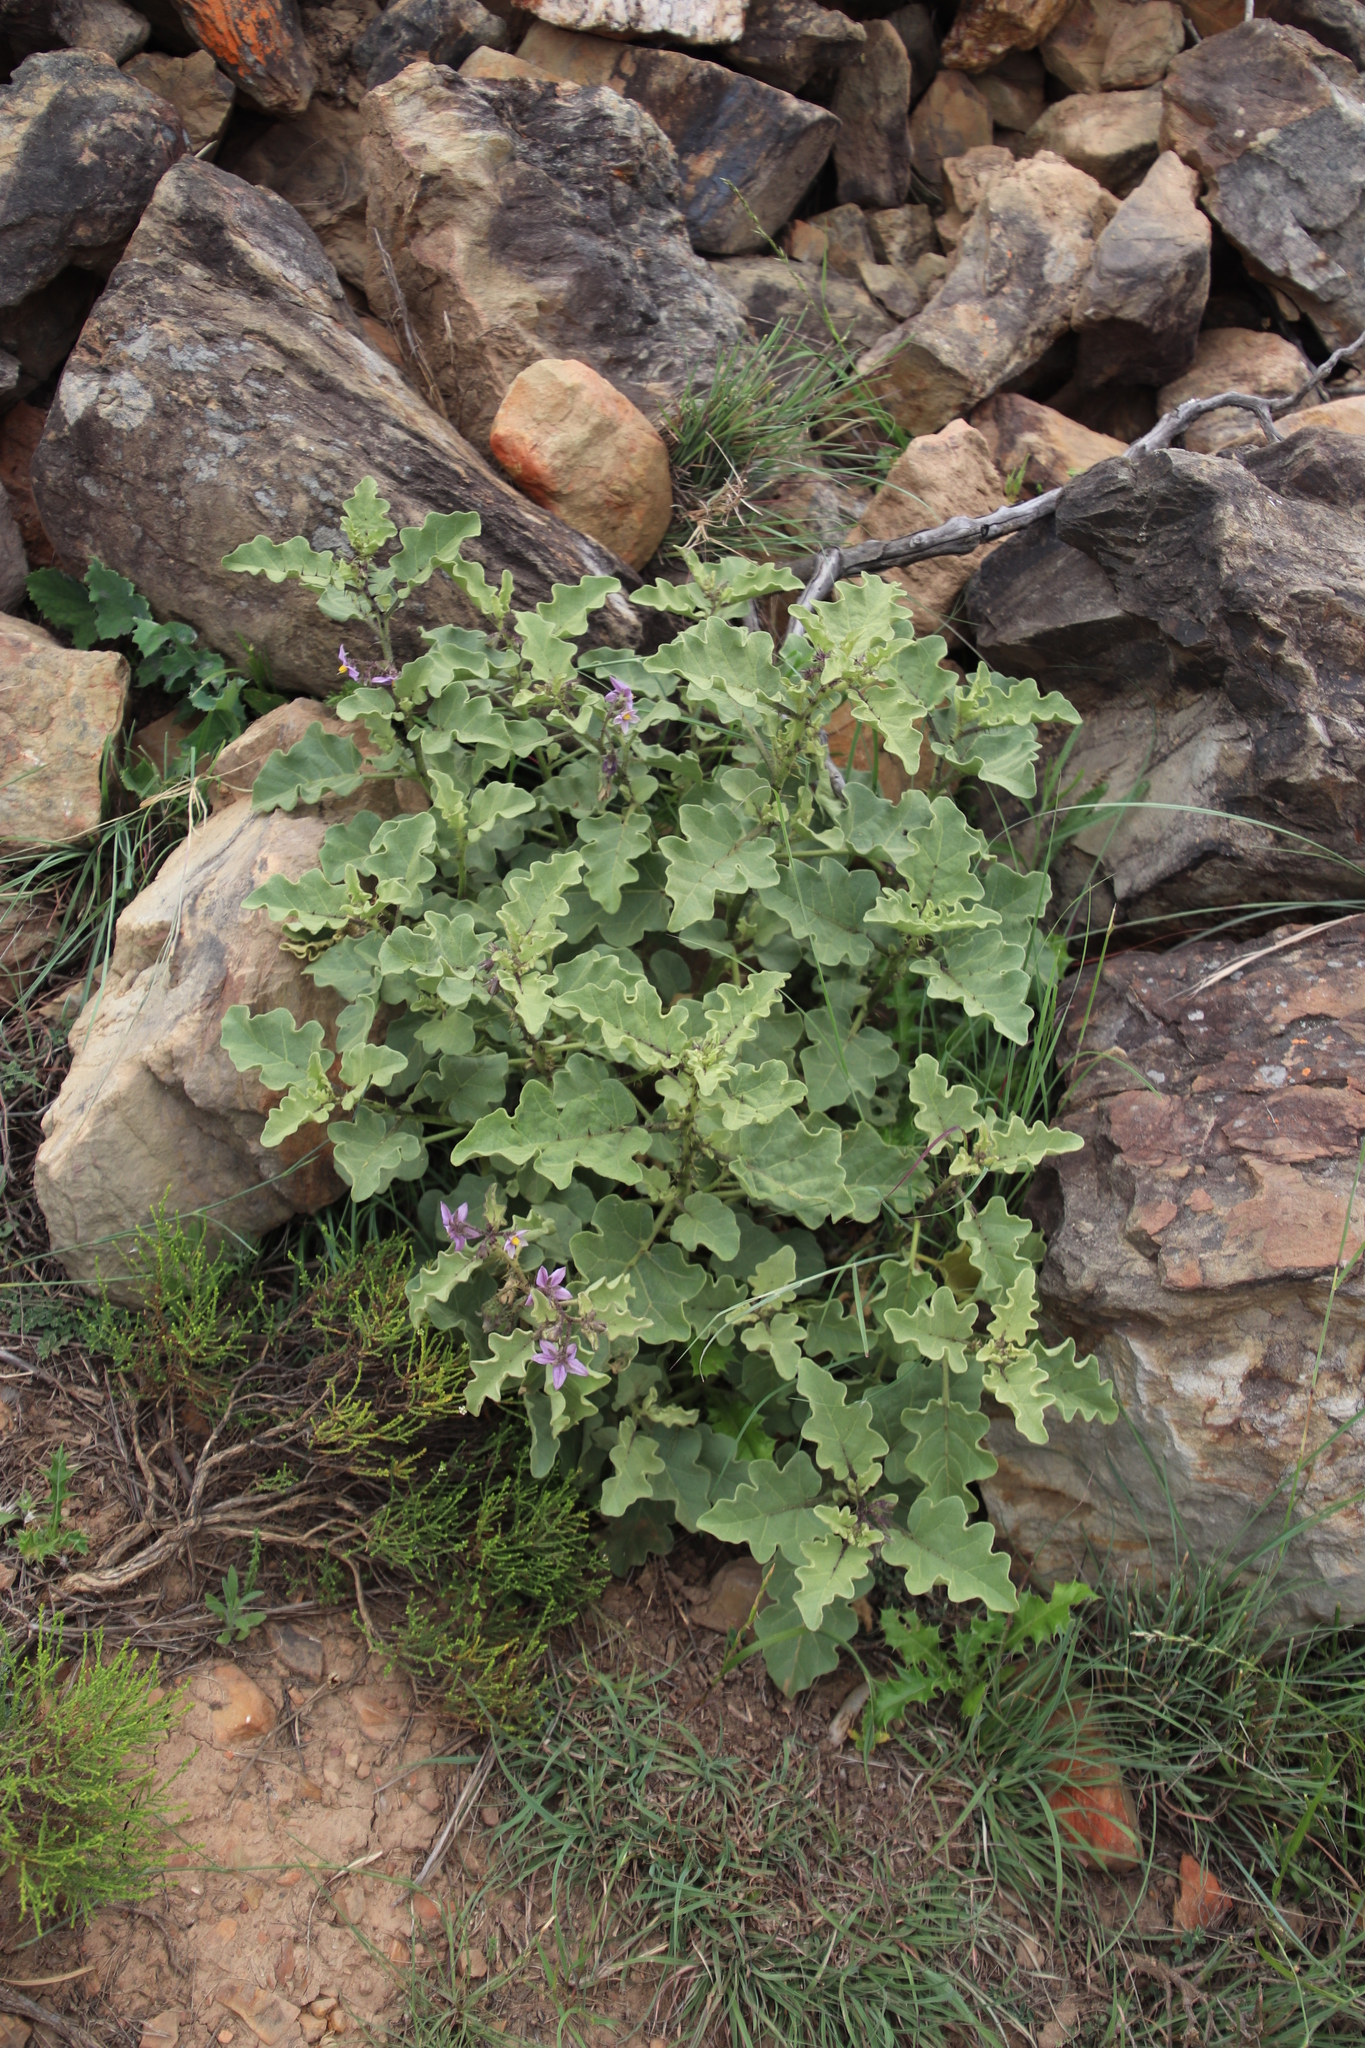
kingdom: Plantae
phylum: Tracheophyta
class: Magnoliopsida
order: Solanales
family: Solanaceae
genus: Solanum
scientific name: Solanum tomentosum
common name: Wild aubergine
